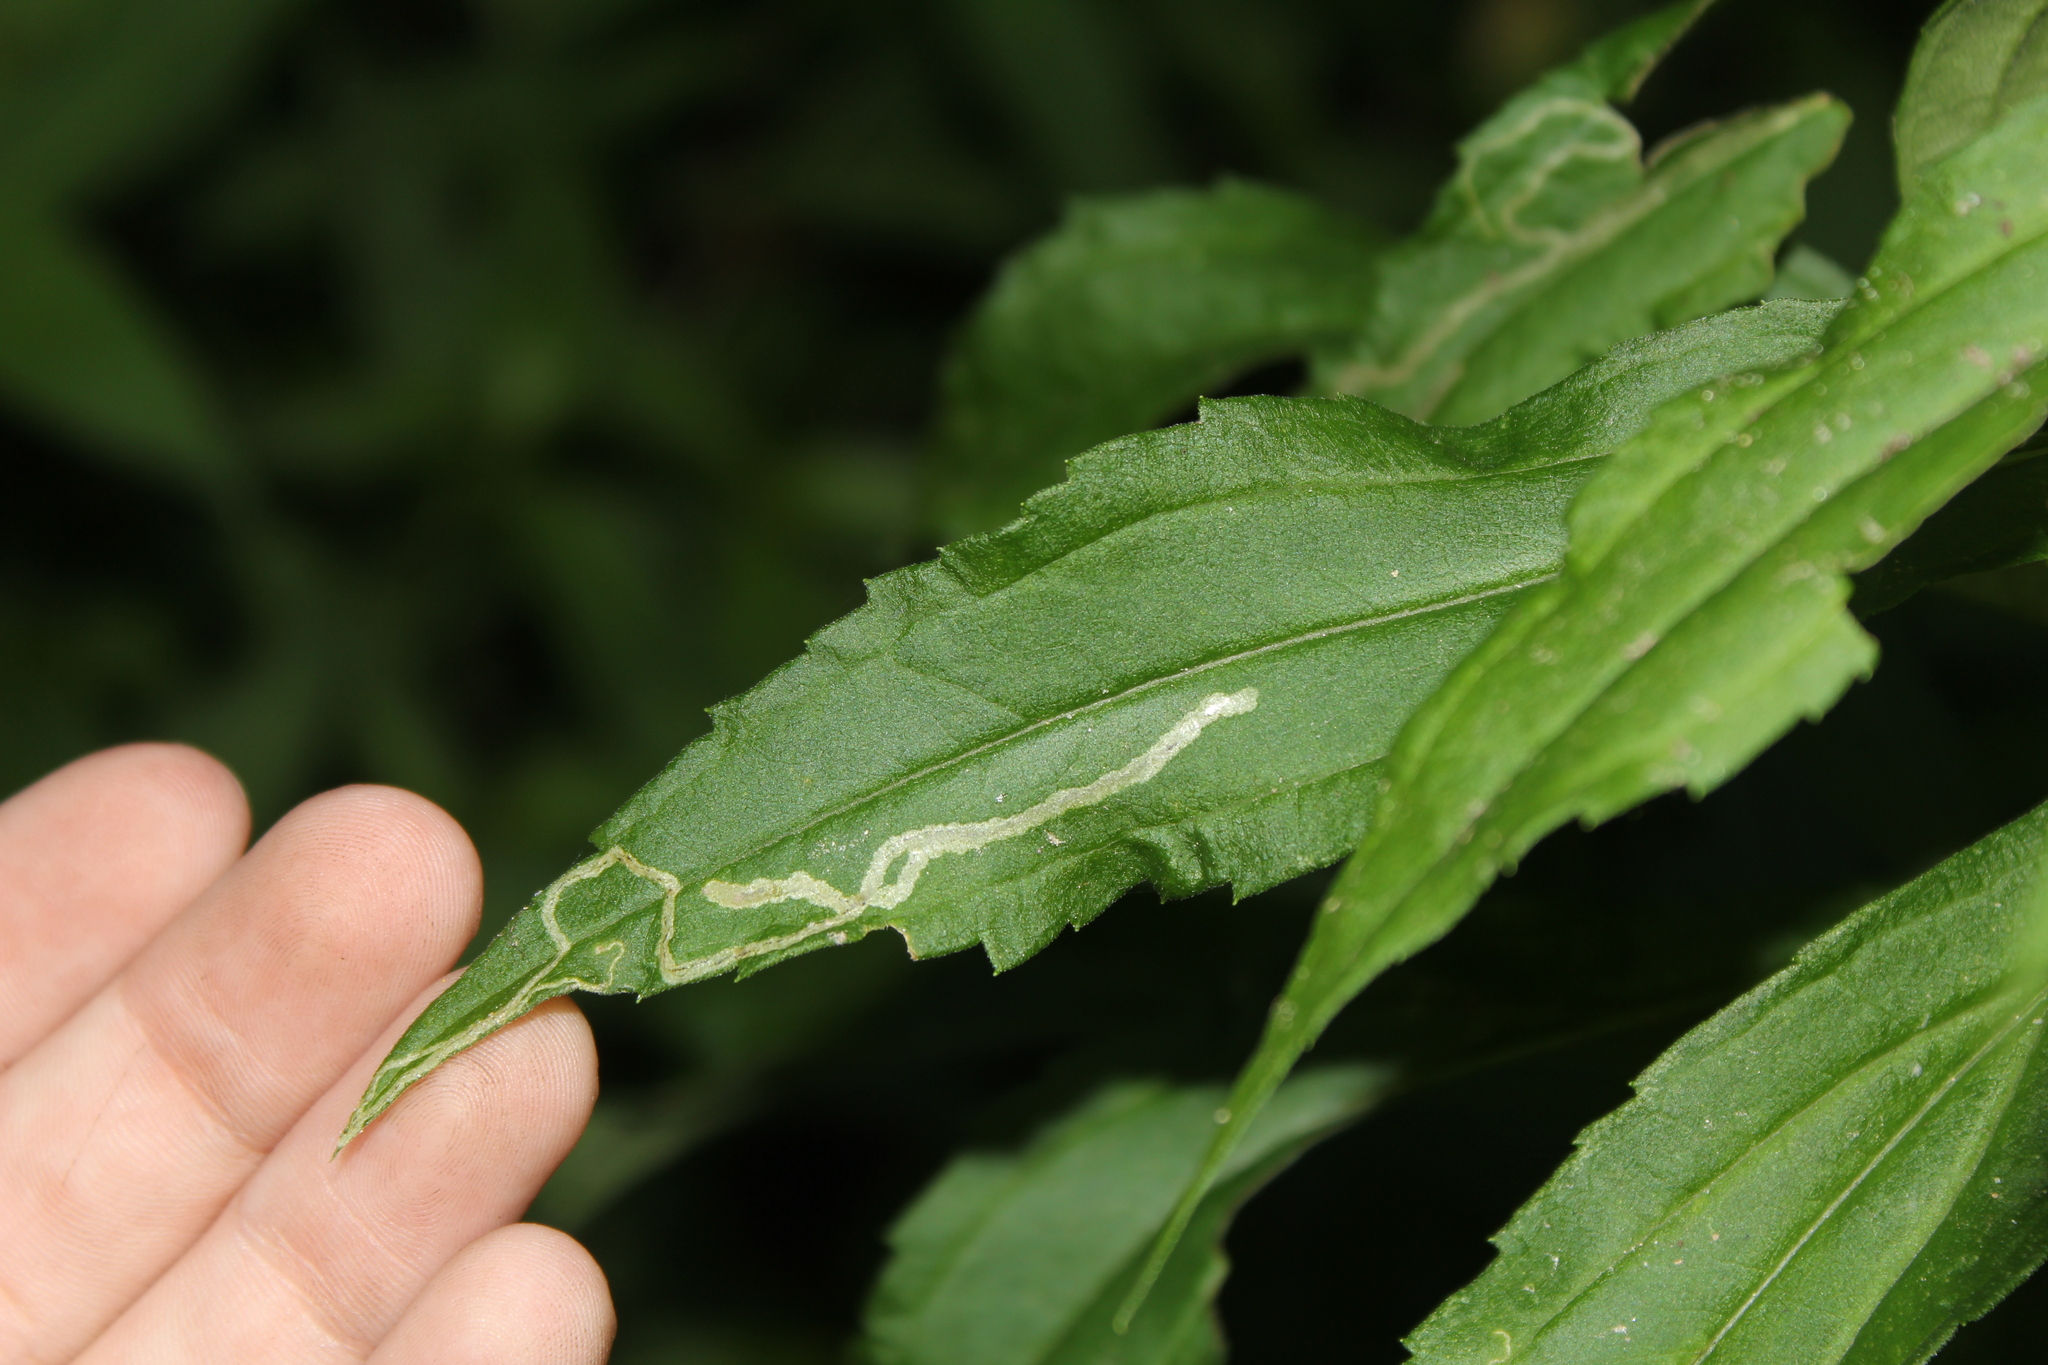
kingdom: Animalia
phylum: Arthropoda
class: Insecta
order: Diptera
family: Agromyzidae
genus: Liriomyza
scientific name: Liriomyza eupatorii
